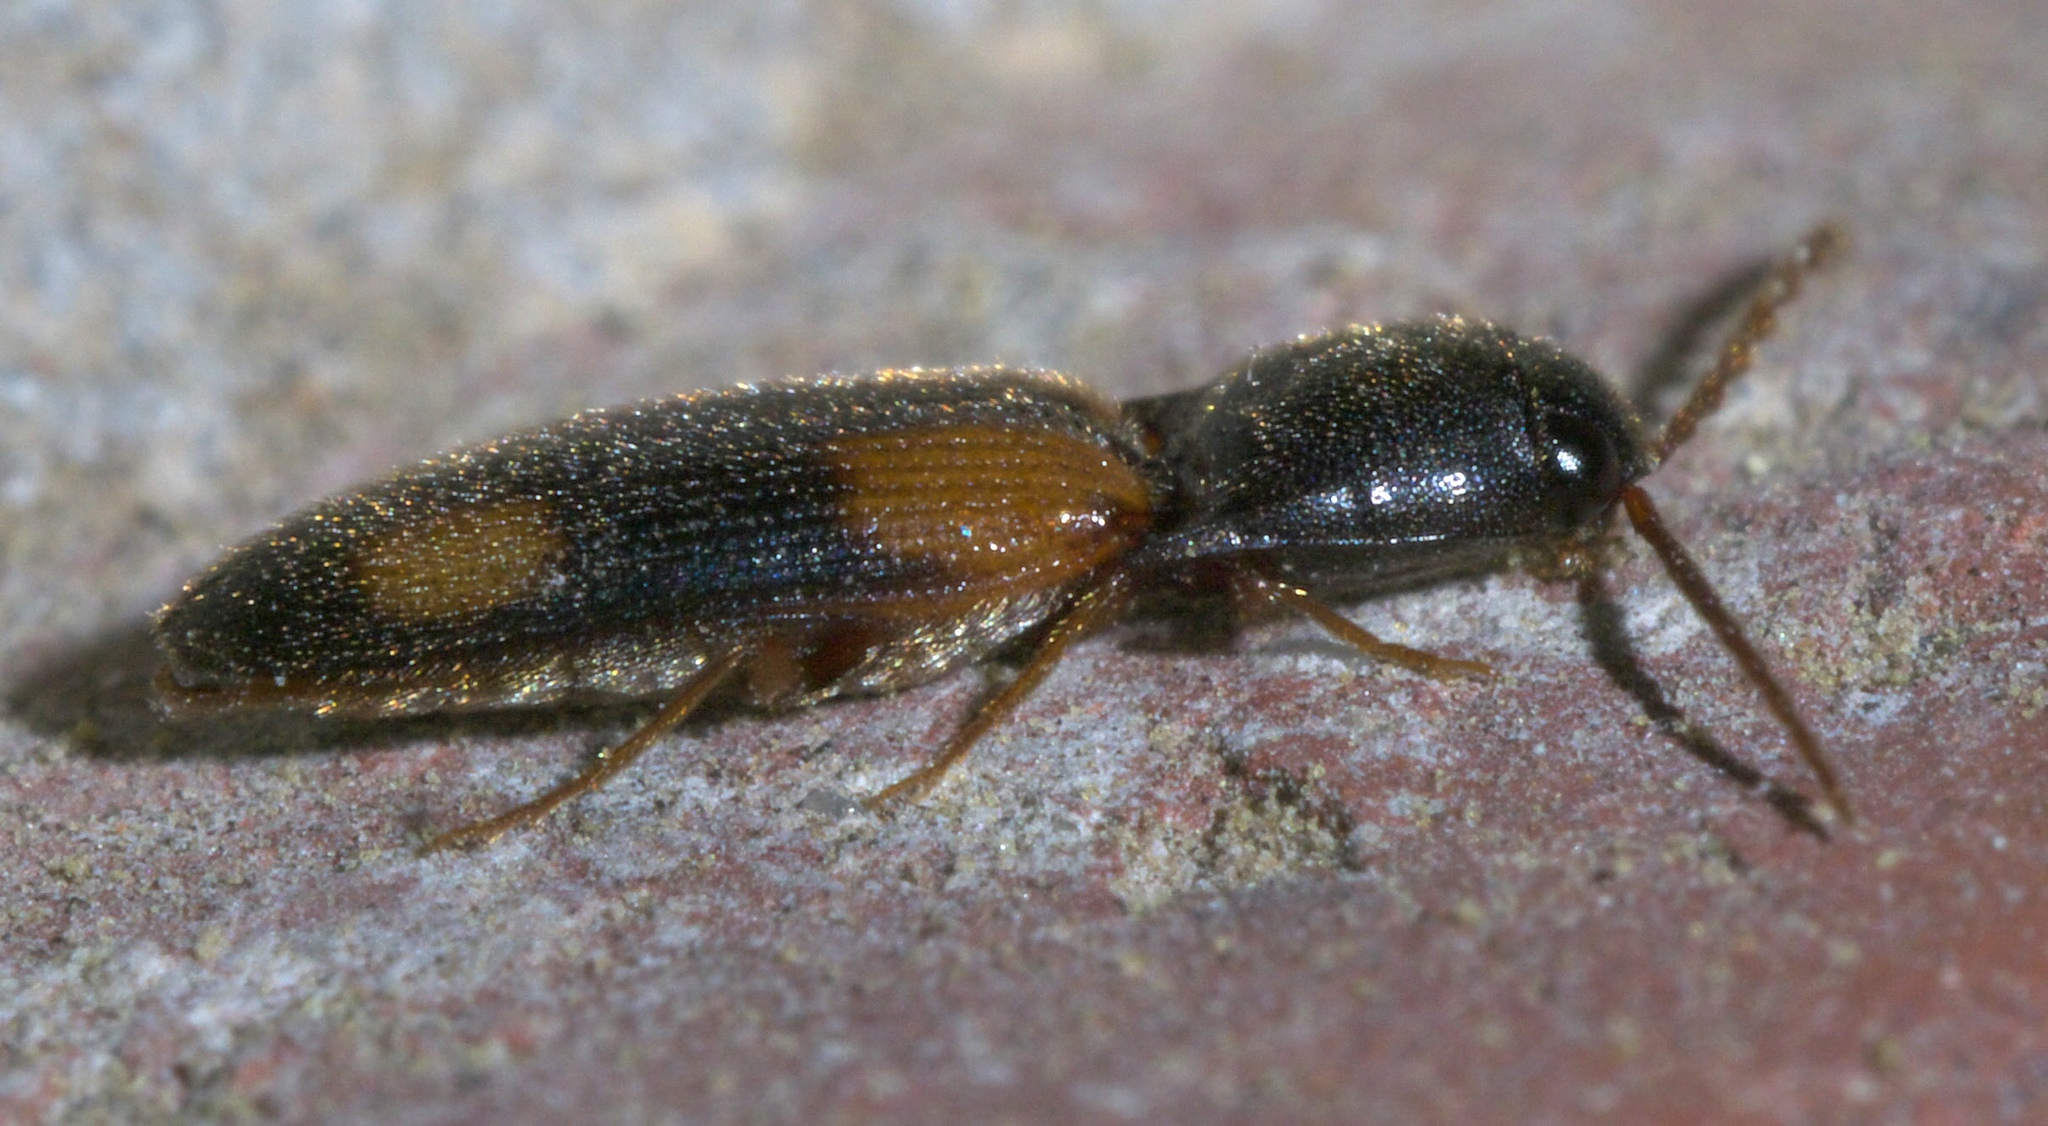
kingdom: Animalia
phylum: Arthropoda
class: Insecta
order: Coleoptera
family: Elateridae
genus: Anchastus
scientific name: Anchastus binus
